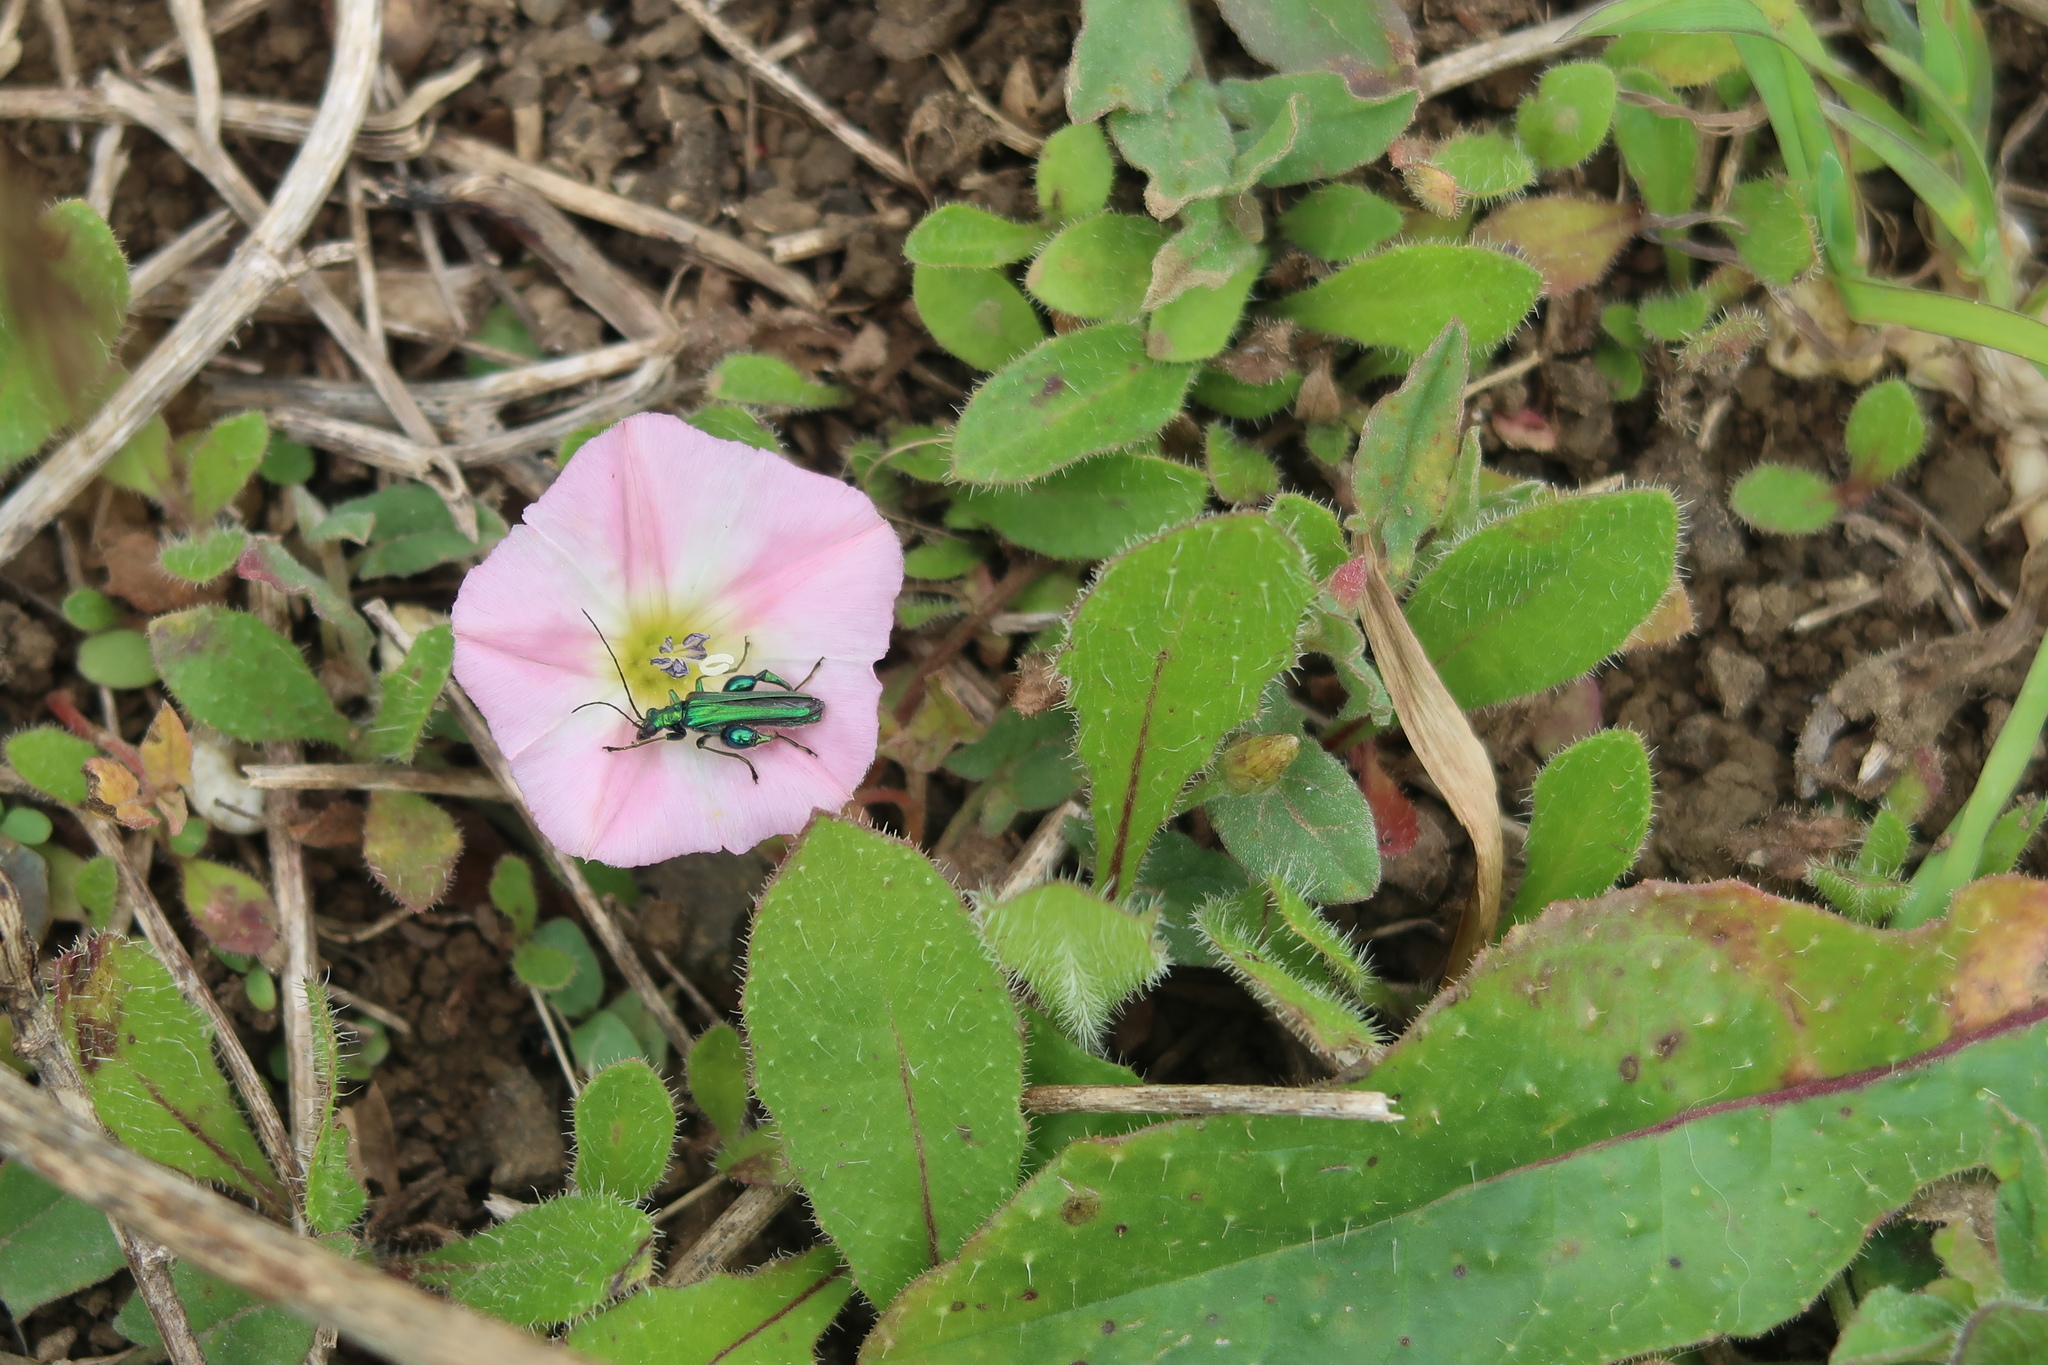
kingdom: Plantae
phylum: Tracheophyta
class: Magnoliopsida
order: Solanales
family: Convolvulaceae
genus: Convolvulus
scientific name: Convolvulus arvensis
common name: Field bindweed
